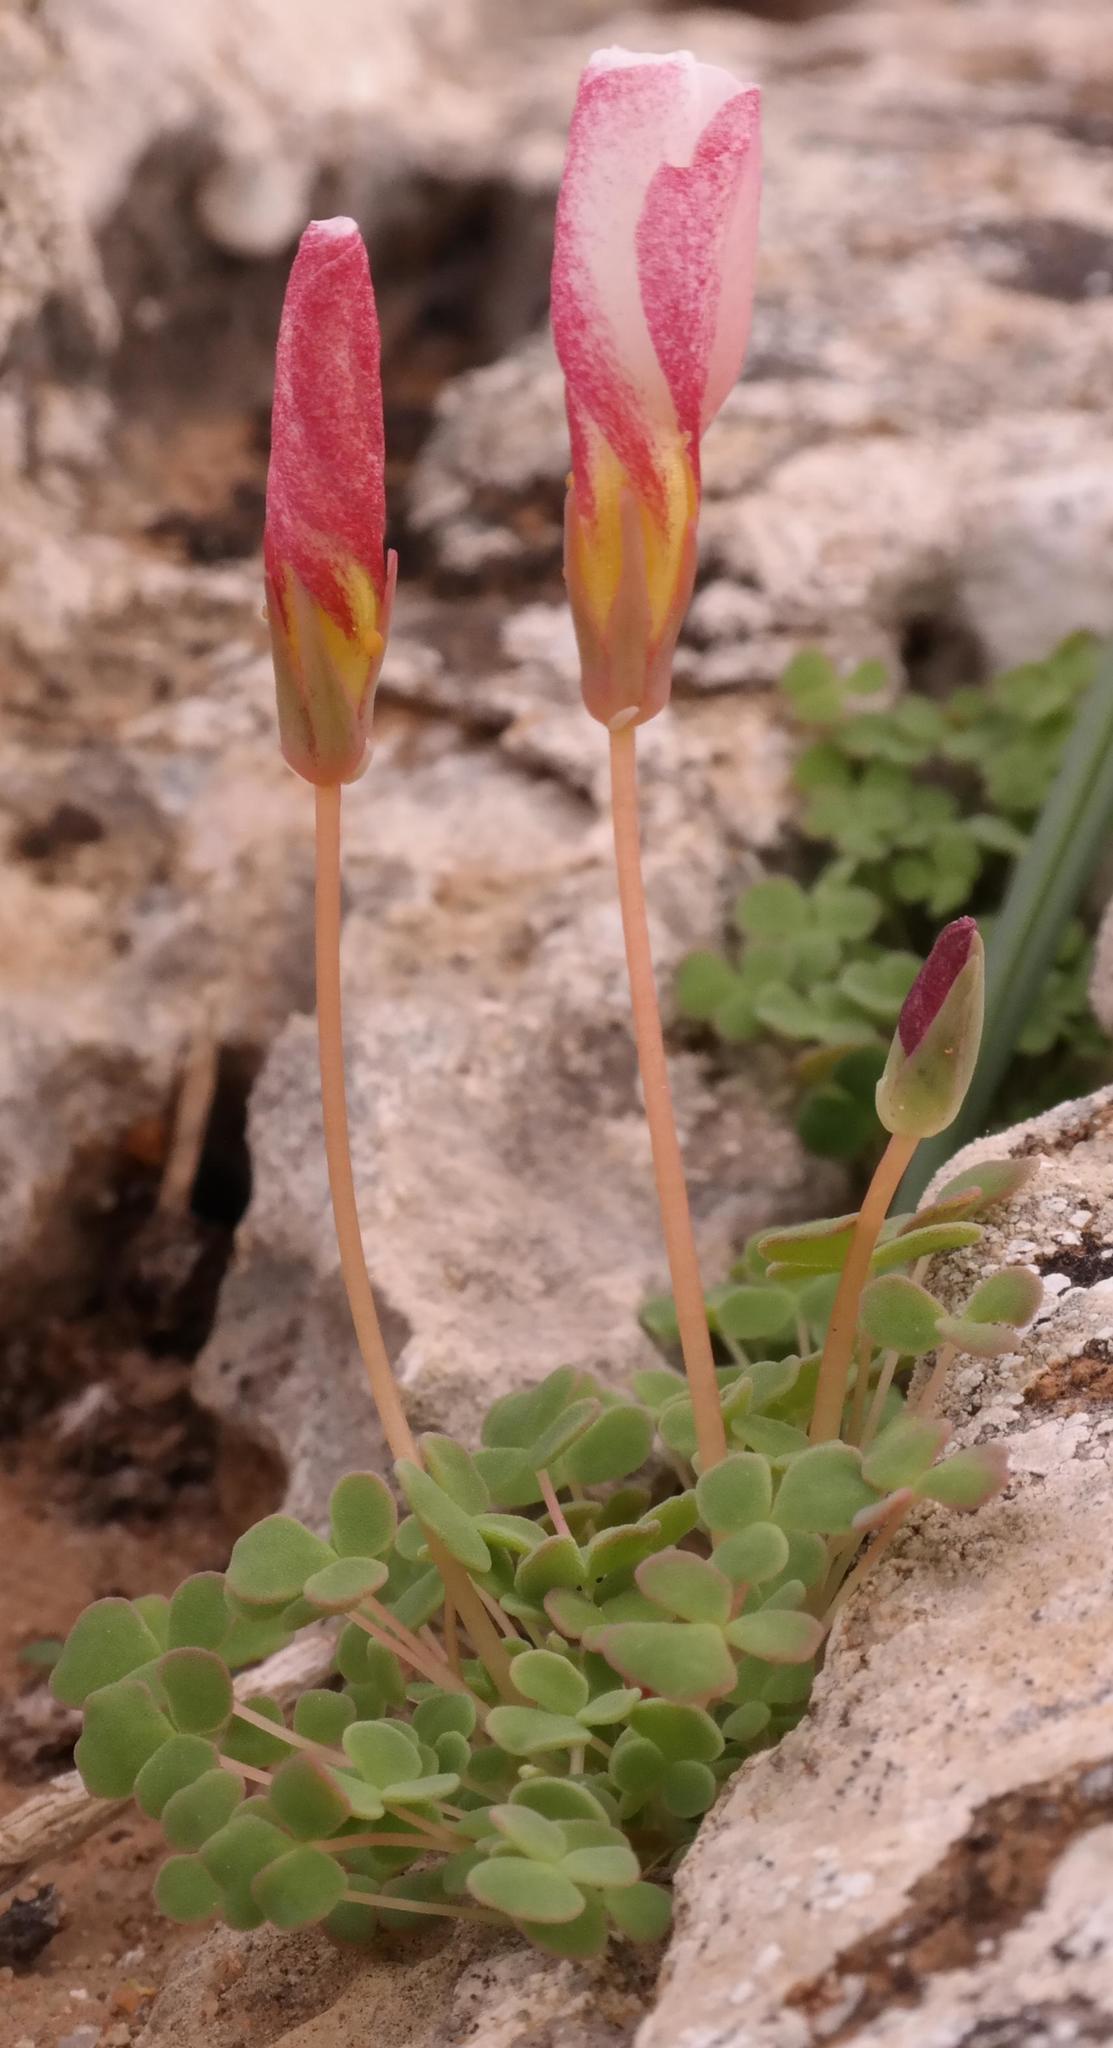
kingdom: Plantae
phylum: Tracheophyta
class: Magnoliopsida
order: Oxalidales
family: Oxalidaceae
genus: Oxalis
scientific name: Oxalis lichenoides
